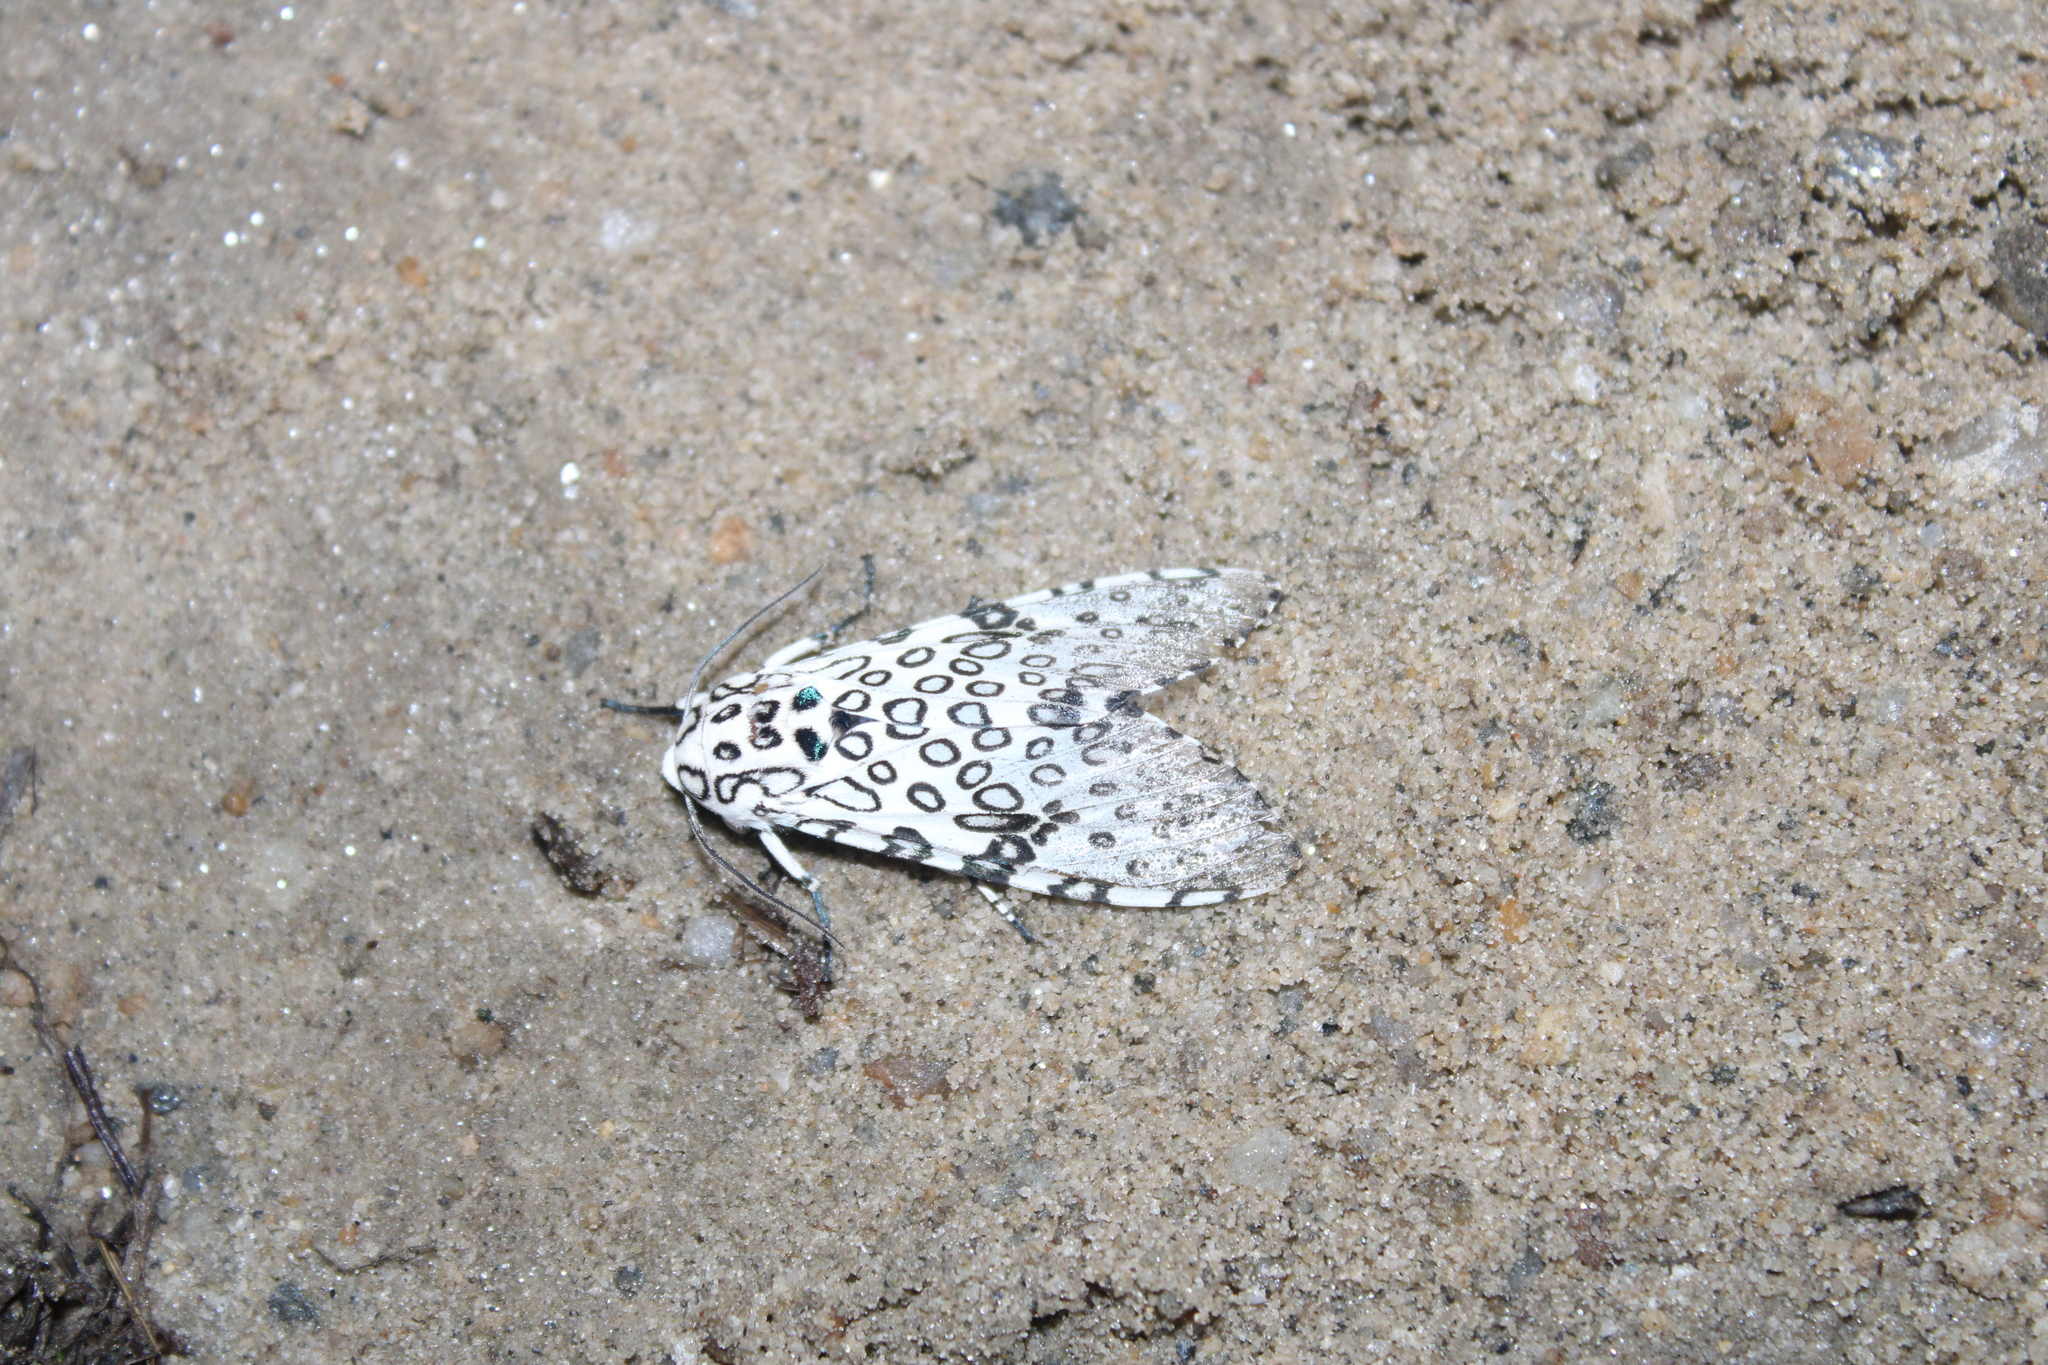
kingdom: Animalia
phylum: Arthropoda
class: Insecta
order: Lepidoptera
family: Erebidae
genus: Hypercompe
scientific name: Hypercompe scribonia
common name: Giant leopard moth
